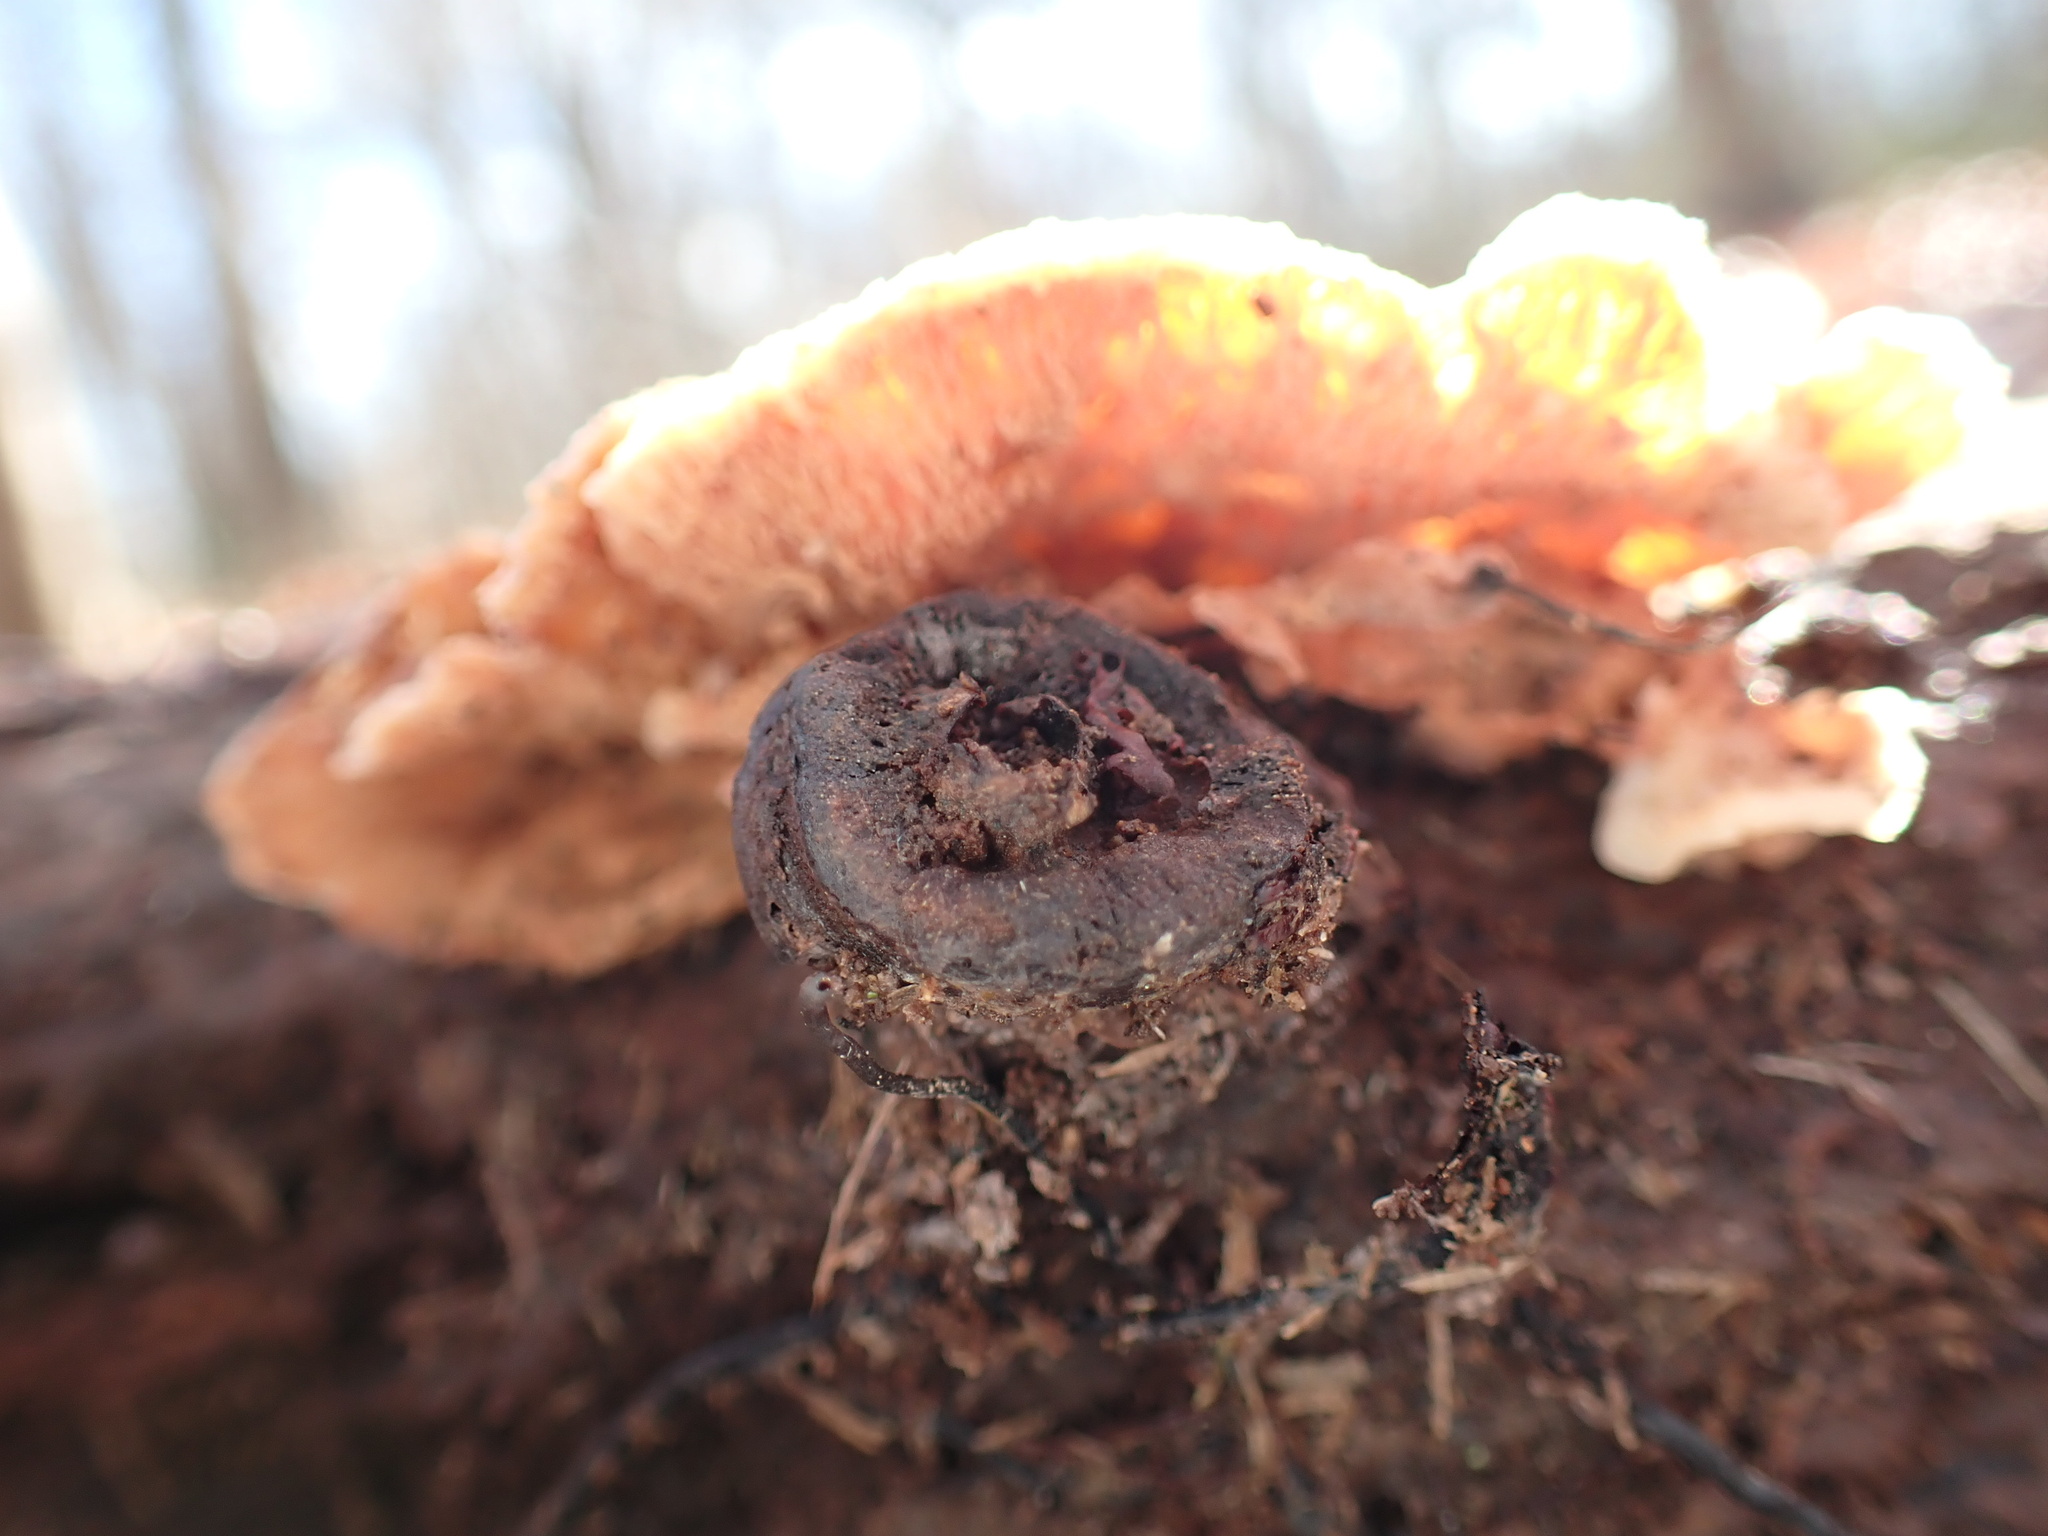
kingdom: Fungi
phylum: Basidiomycota
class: Agaricomycetes
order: Polyporales
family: Meruliaceae
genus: Phlebia
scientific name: Phlebia tremellosa
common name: Jelly rot
